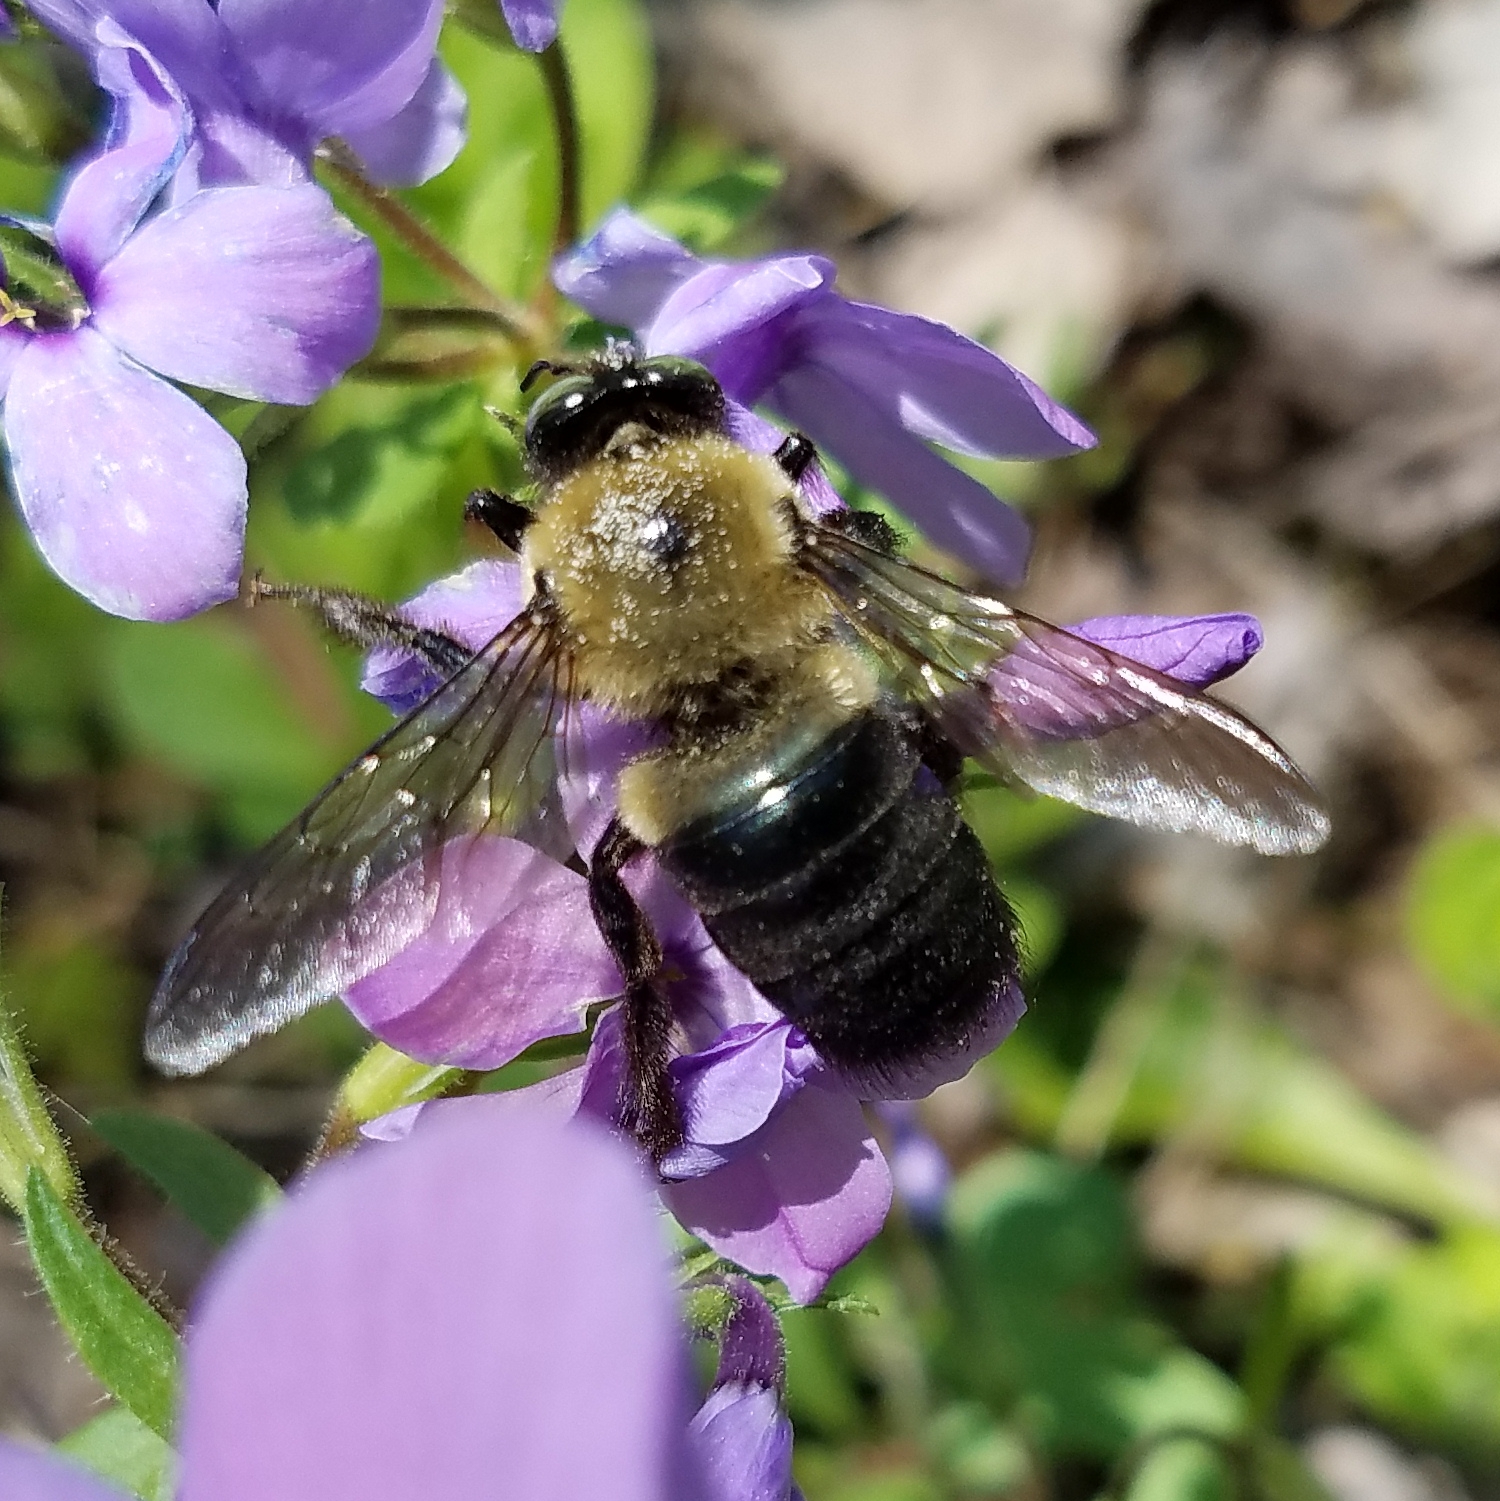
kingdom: Animalia
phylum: Arthropoda
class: Insecta
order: Hymenoptera
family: Apidae
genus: Xylocopa
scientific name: Xylocopa virginica
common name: Carpenter bee
